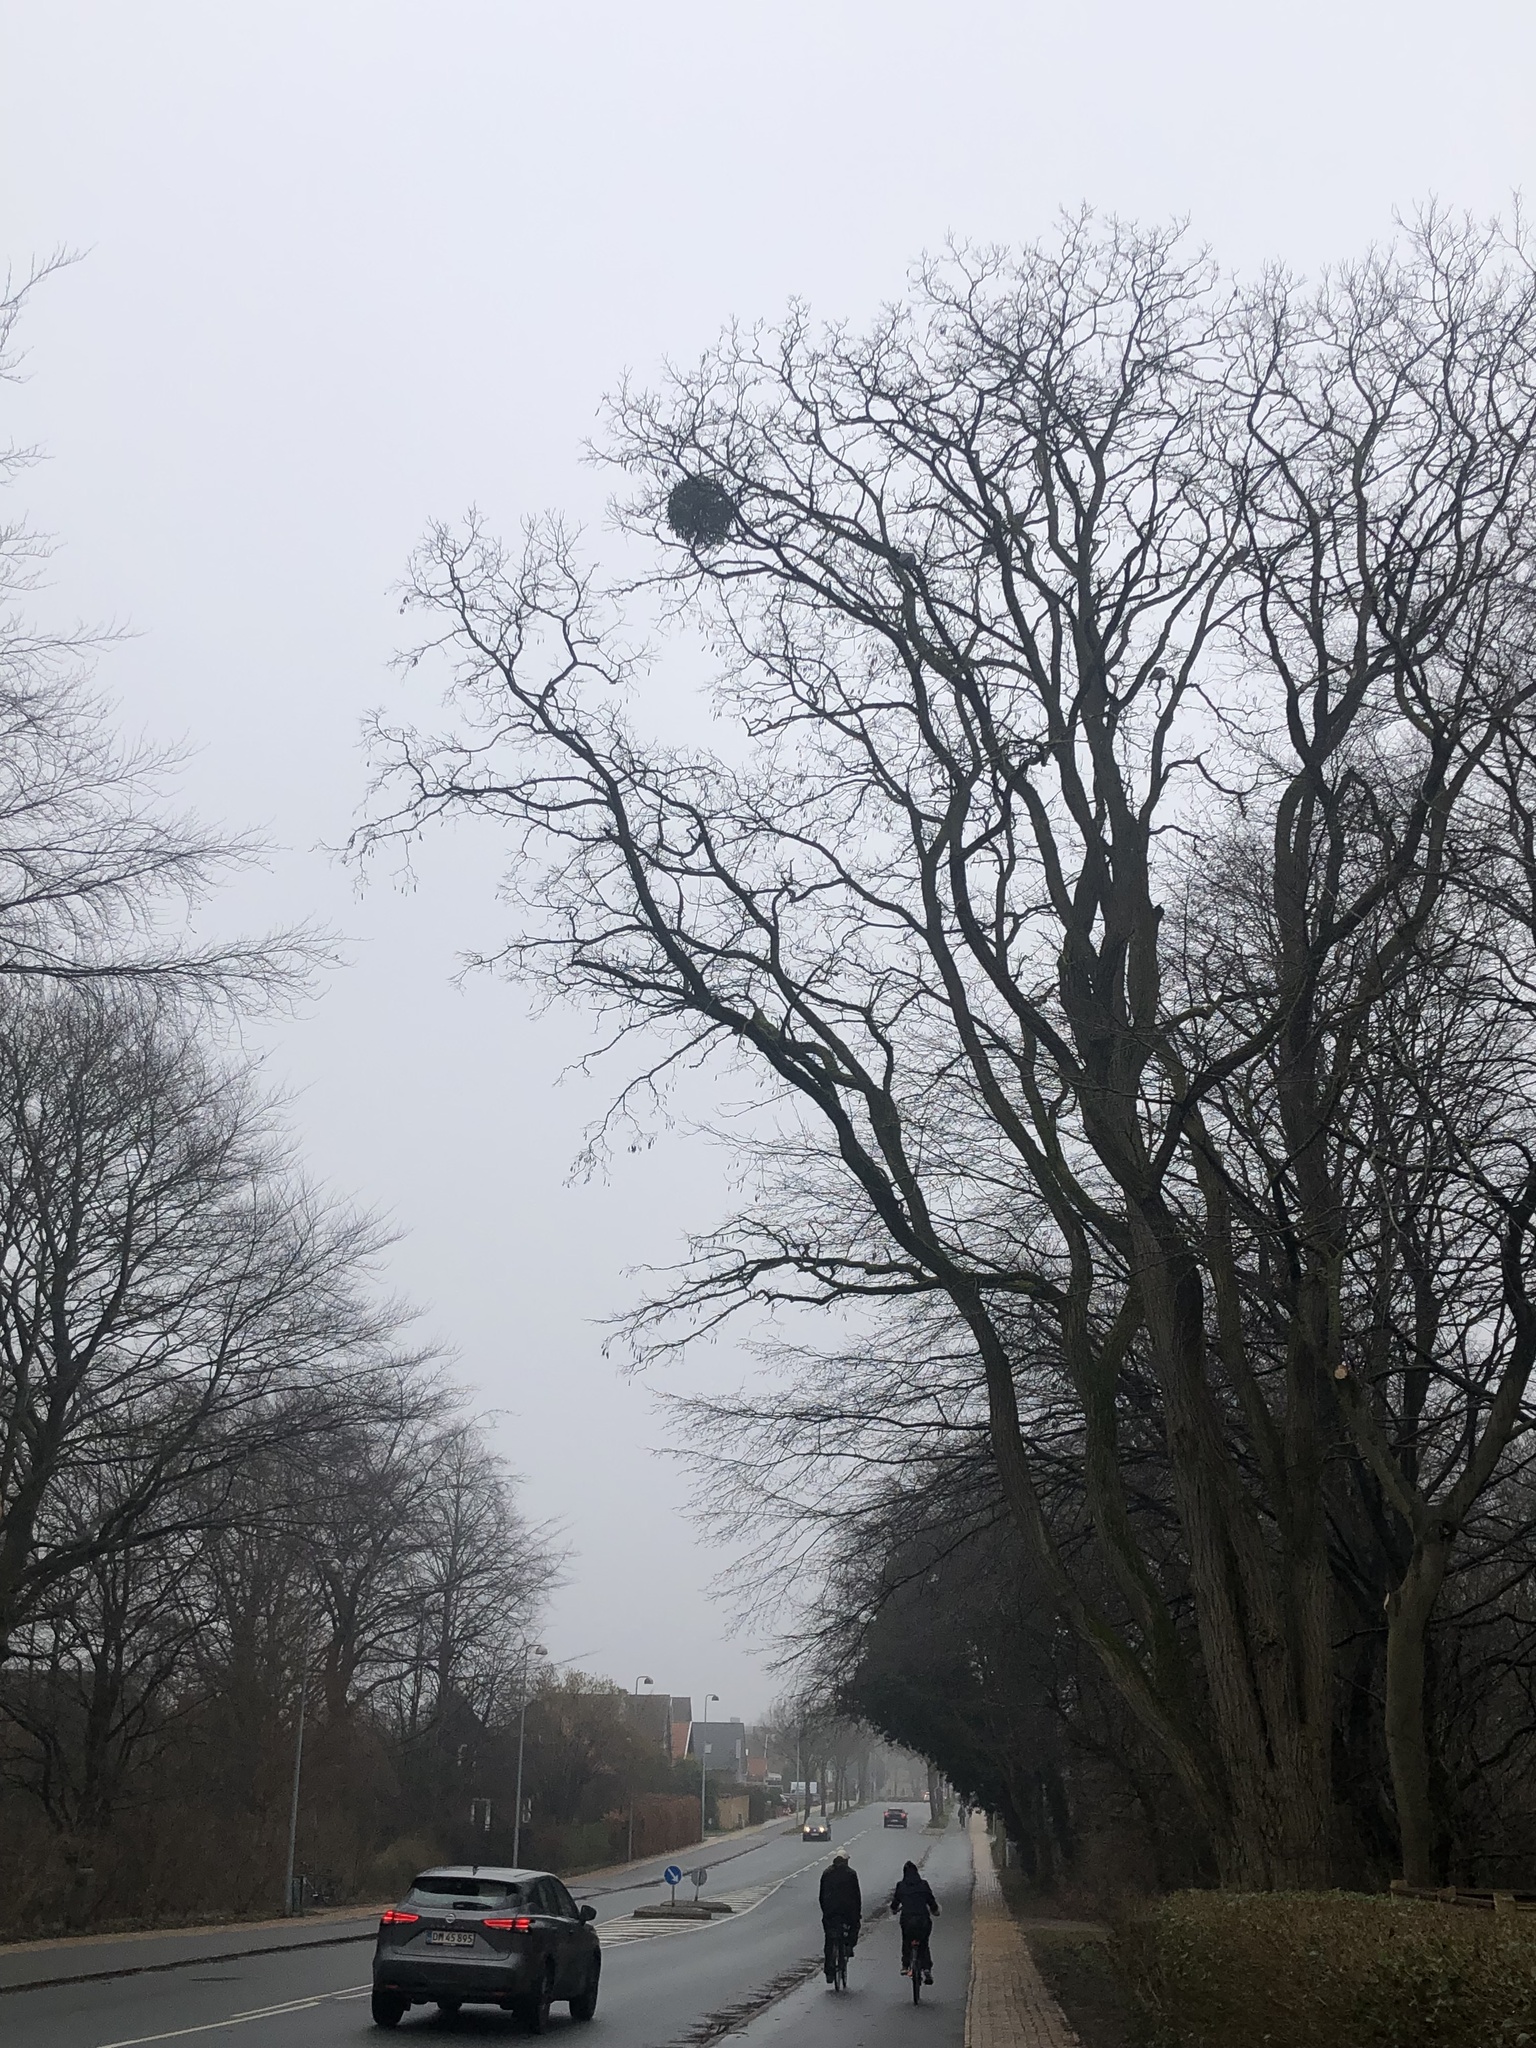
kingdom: Plantae
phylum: Tracheophyta
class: Magnoliopsida
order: Santalales
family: Viscaceae
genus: Viscum
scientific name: Viscum album
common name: Mistletoe
